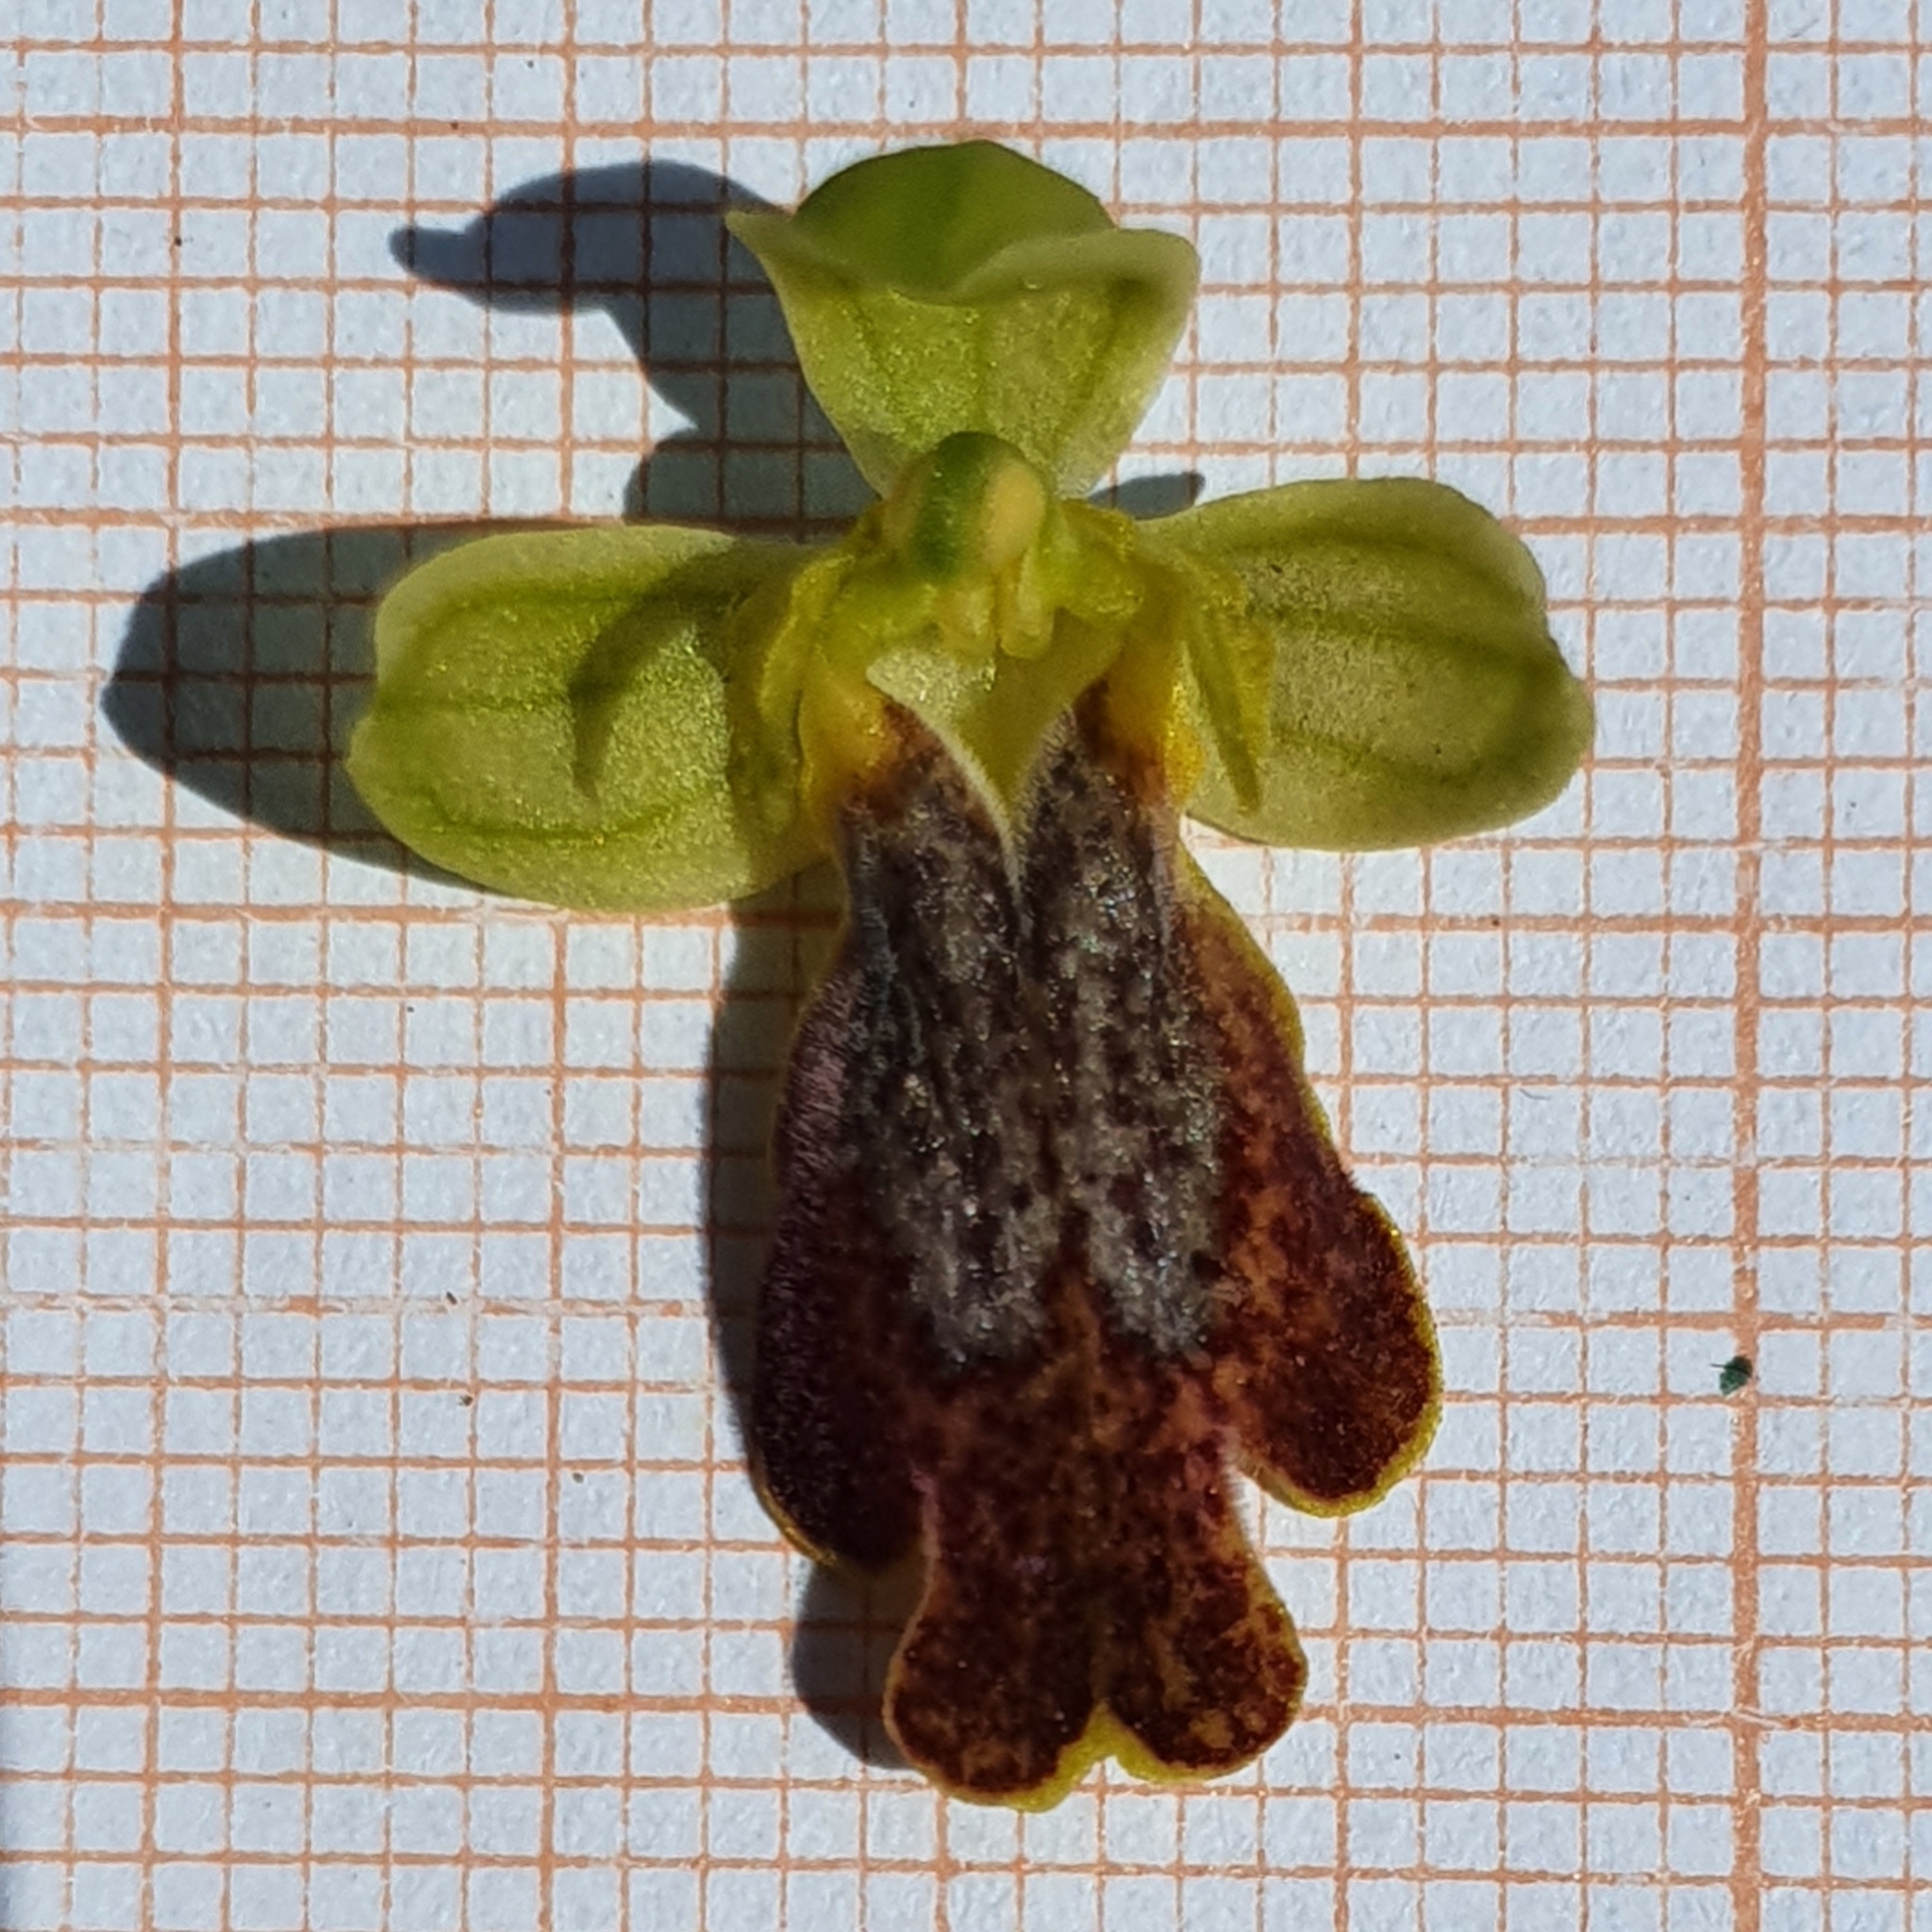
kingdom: Plantae
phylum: Tracheophyta
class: Liliopsida
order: Asparagales
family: Orchidaceae
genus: Ophrys
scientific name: Ophrys fusca
